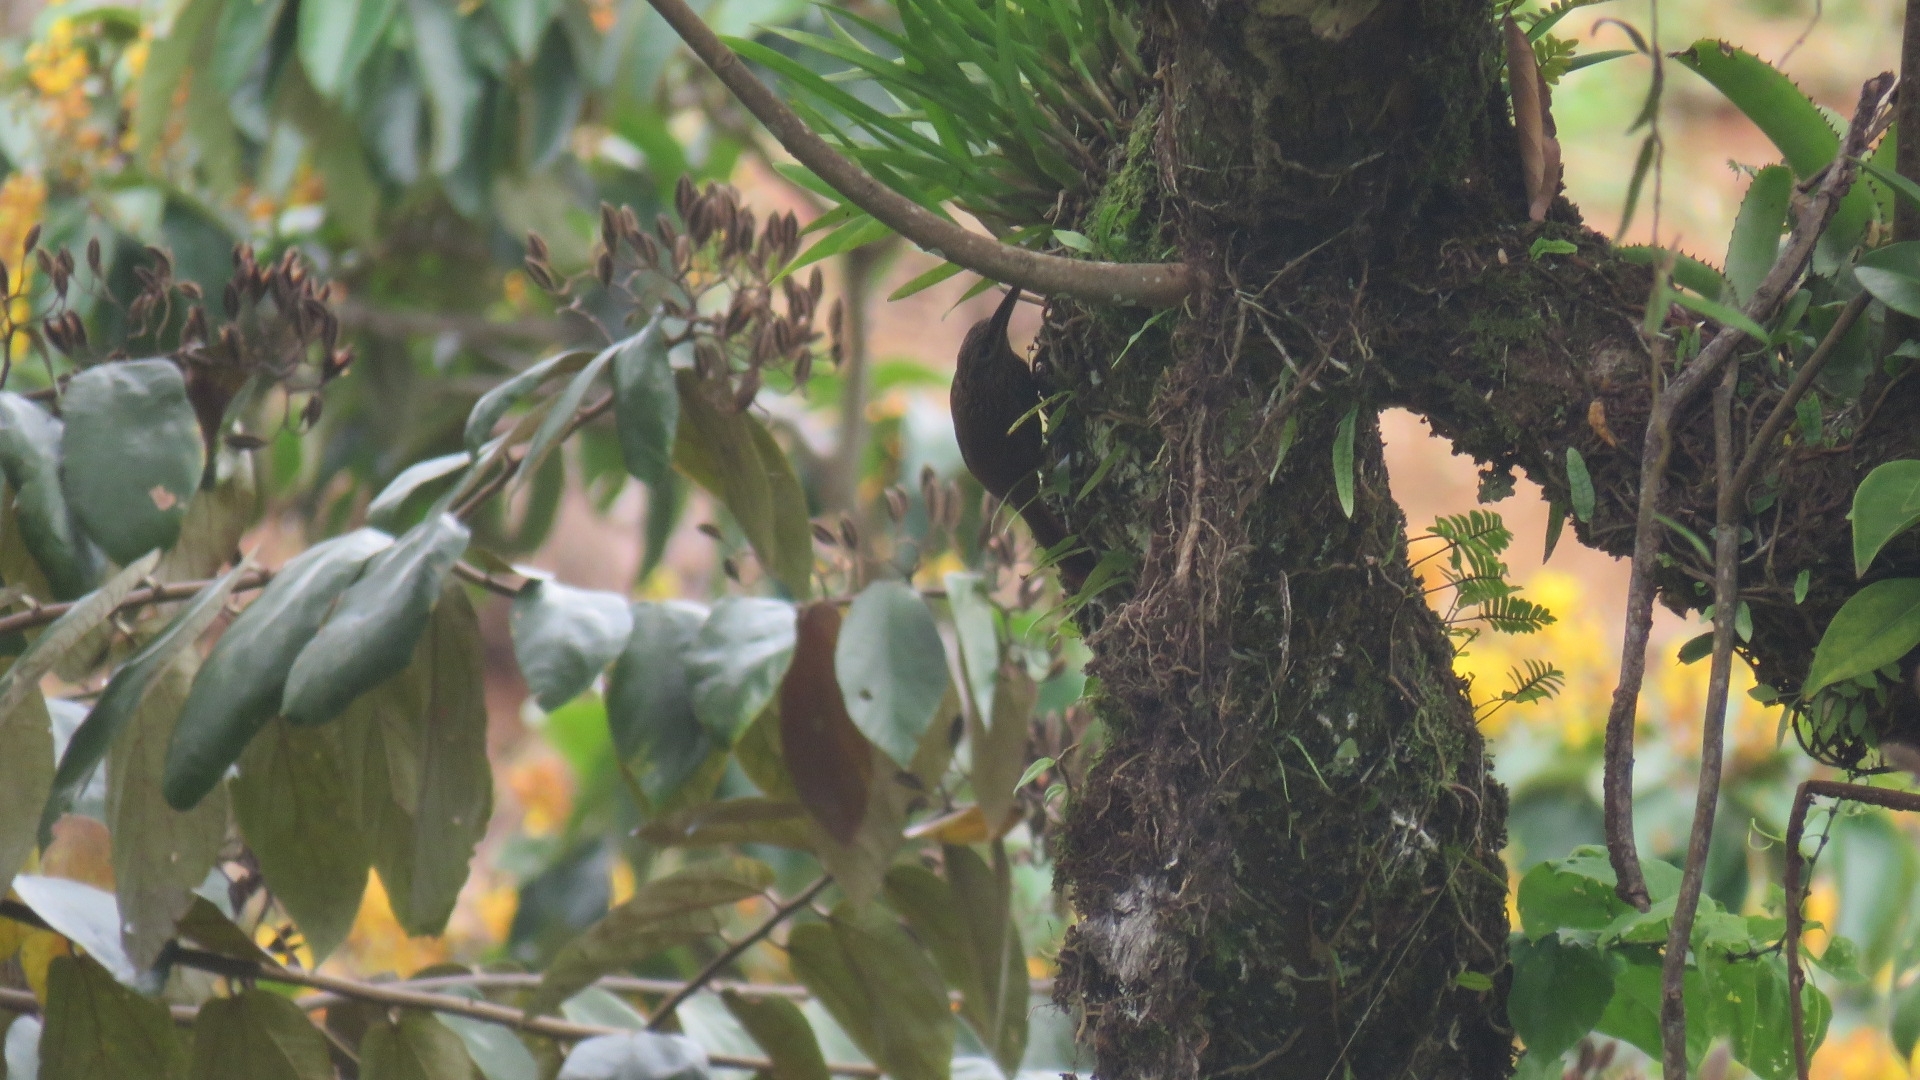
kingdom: Animalia
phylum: Chordata
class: Aves
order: Passeriformes
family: Furnariidae
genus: Xiphorhynchus
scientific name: Xiphorhynchus susurrans
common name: Cocoa woodcreeper
